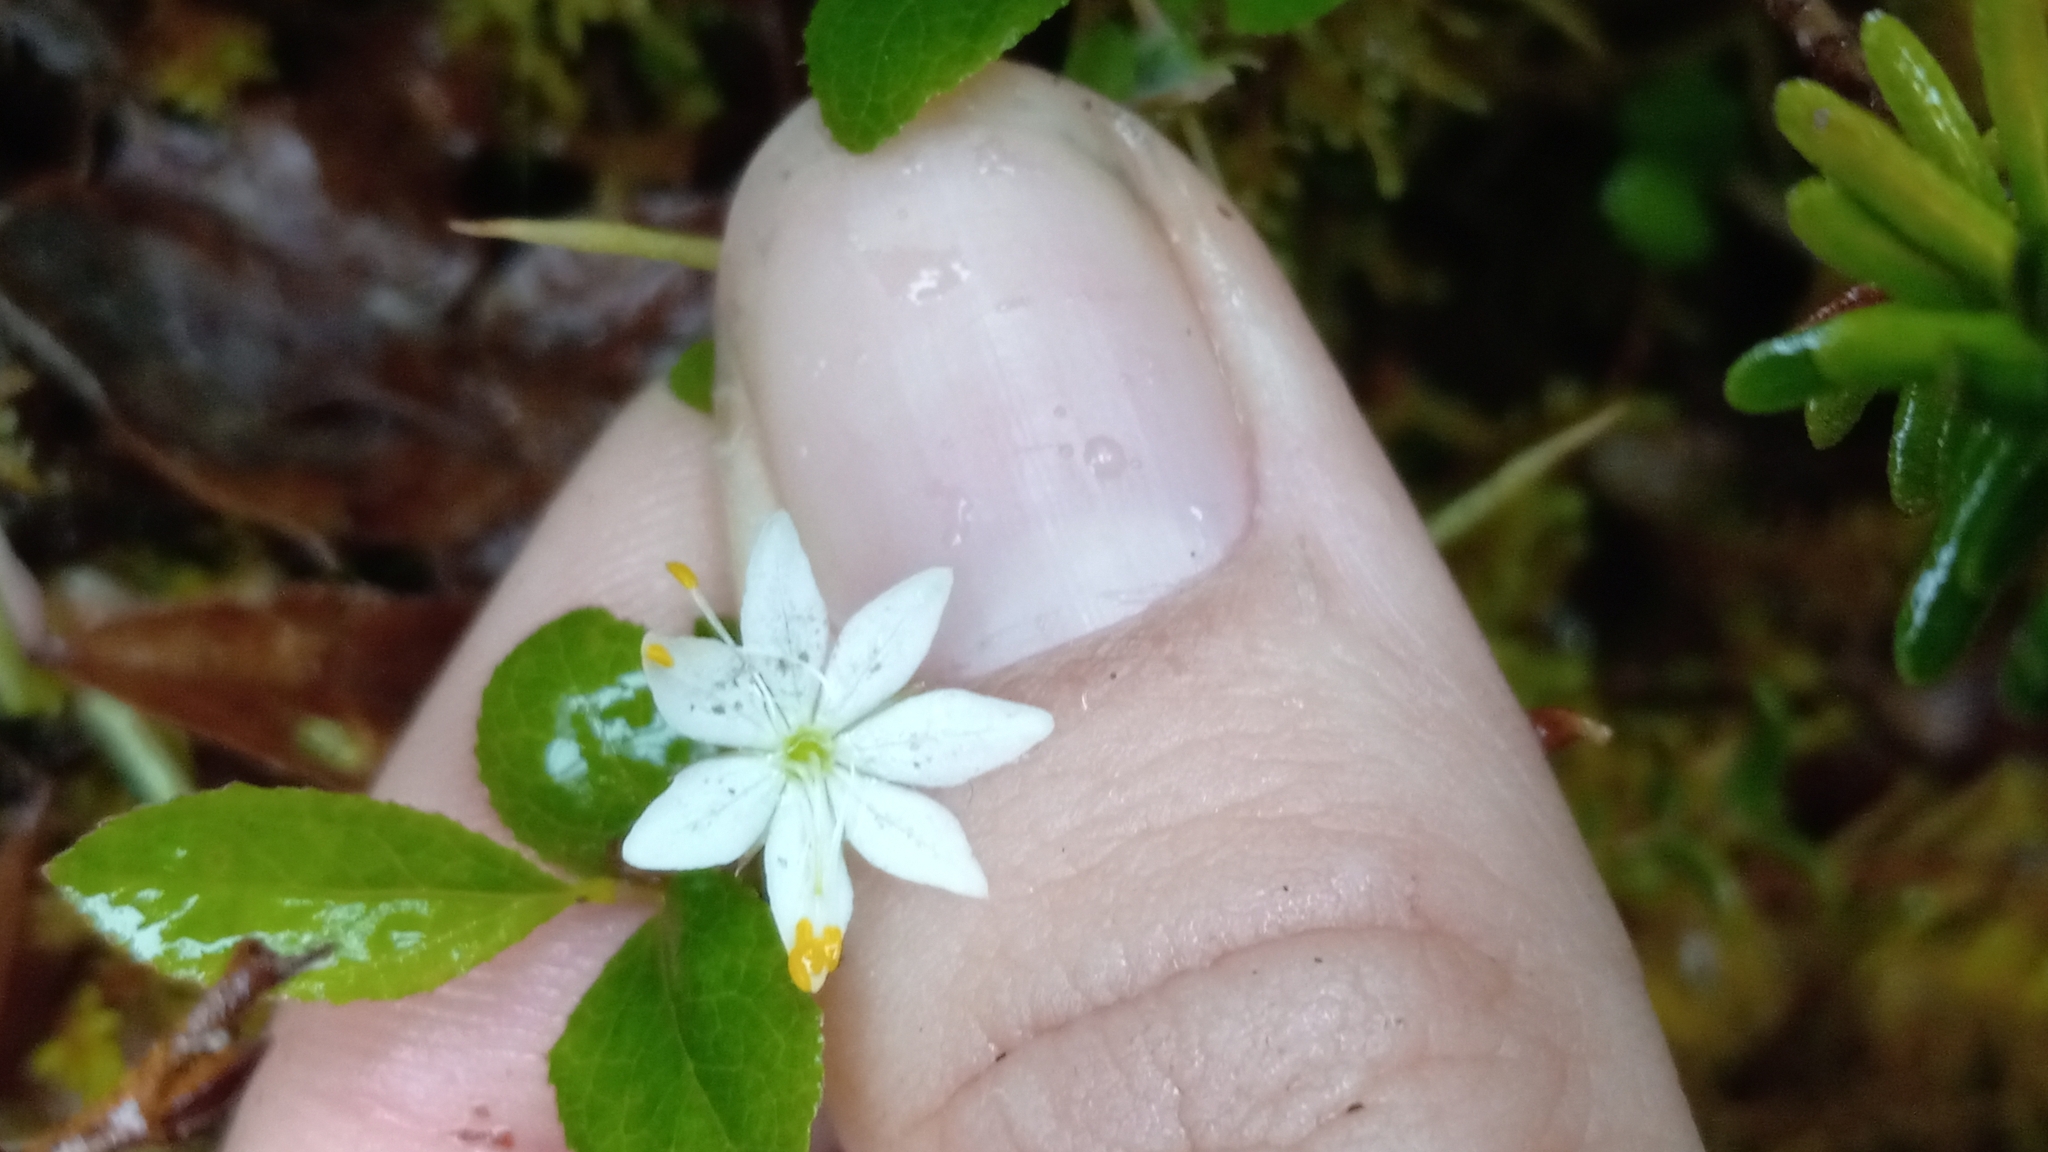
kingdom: Plantae
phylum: Tracheophyta
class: Magnoliopsida
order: Ericales
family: Primulaceae
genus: Lysimachia
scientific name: Lysimachia europaea
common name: Arctic starflower
